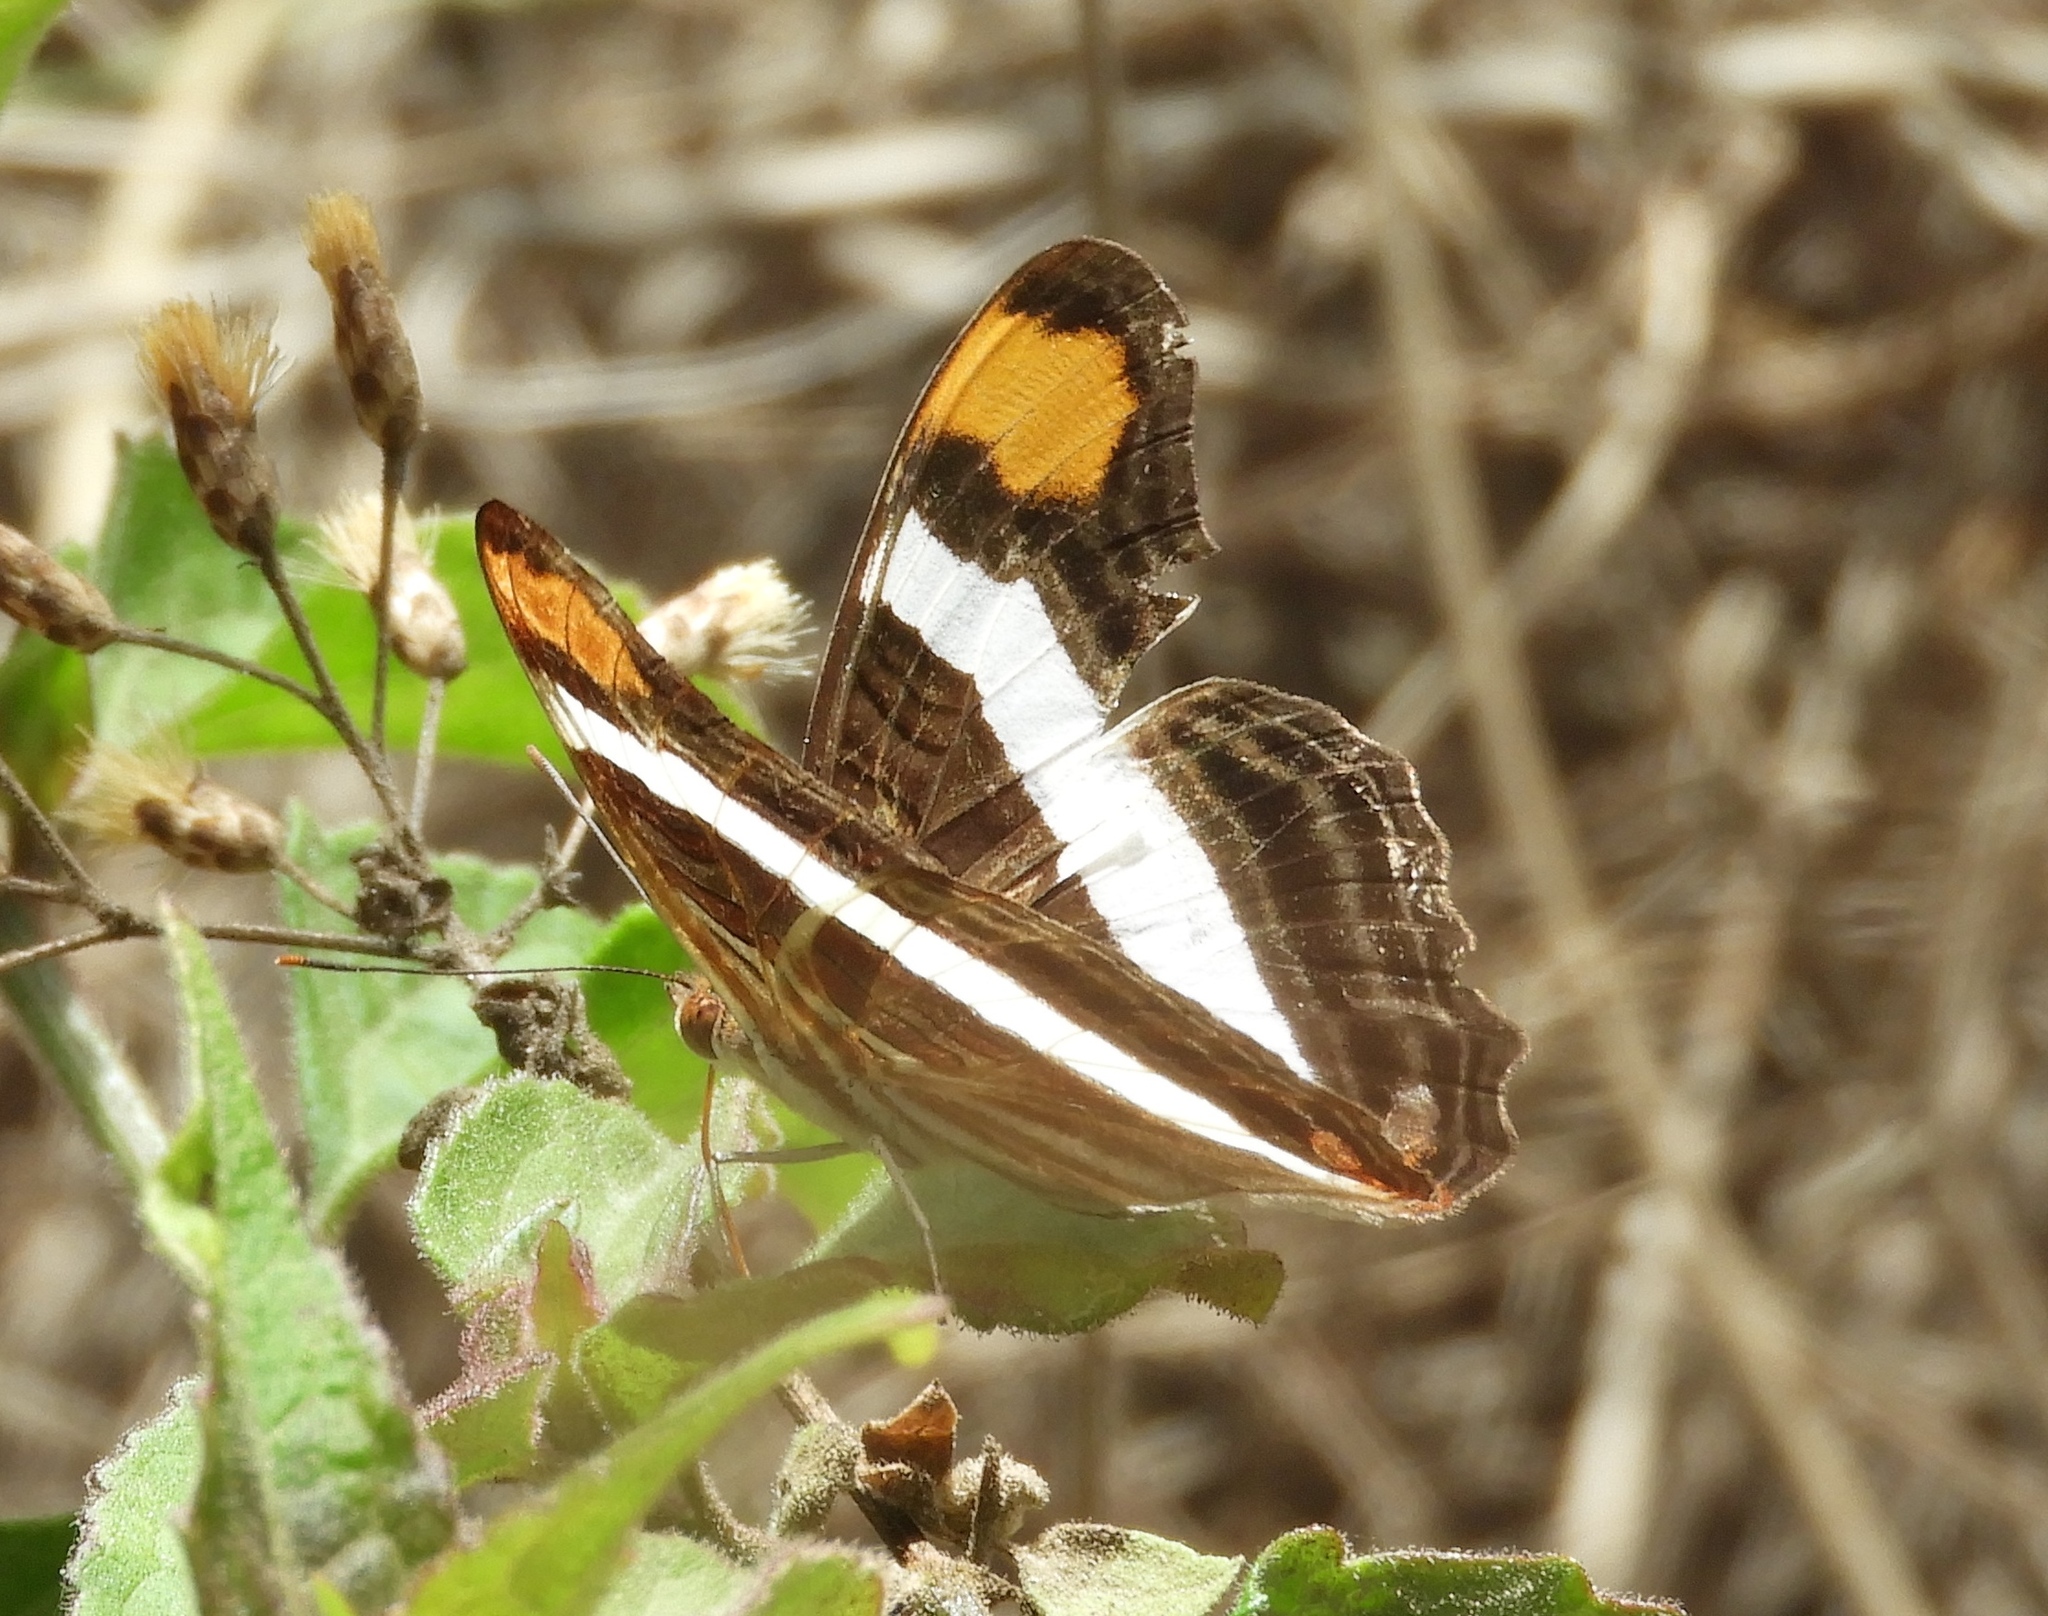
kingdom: Animalia
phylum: Arthropoda
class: Insecta
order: Lepidoptera
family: Nymphalidae
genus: Limenitis
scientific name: Limenitis fessonia
